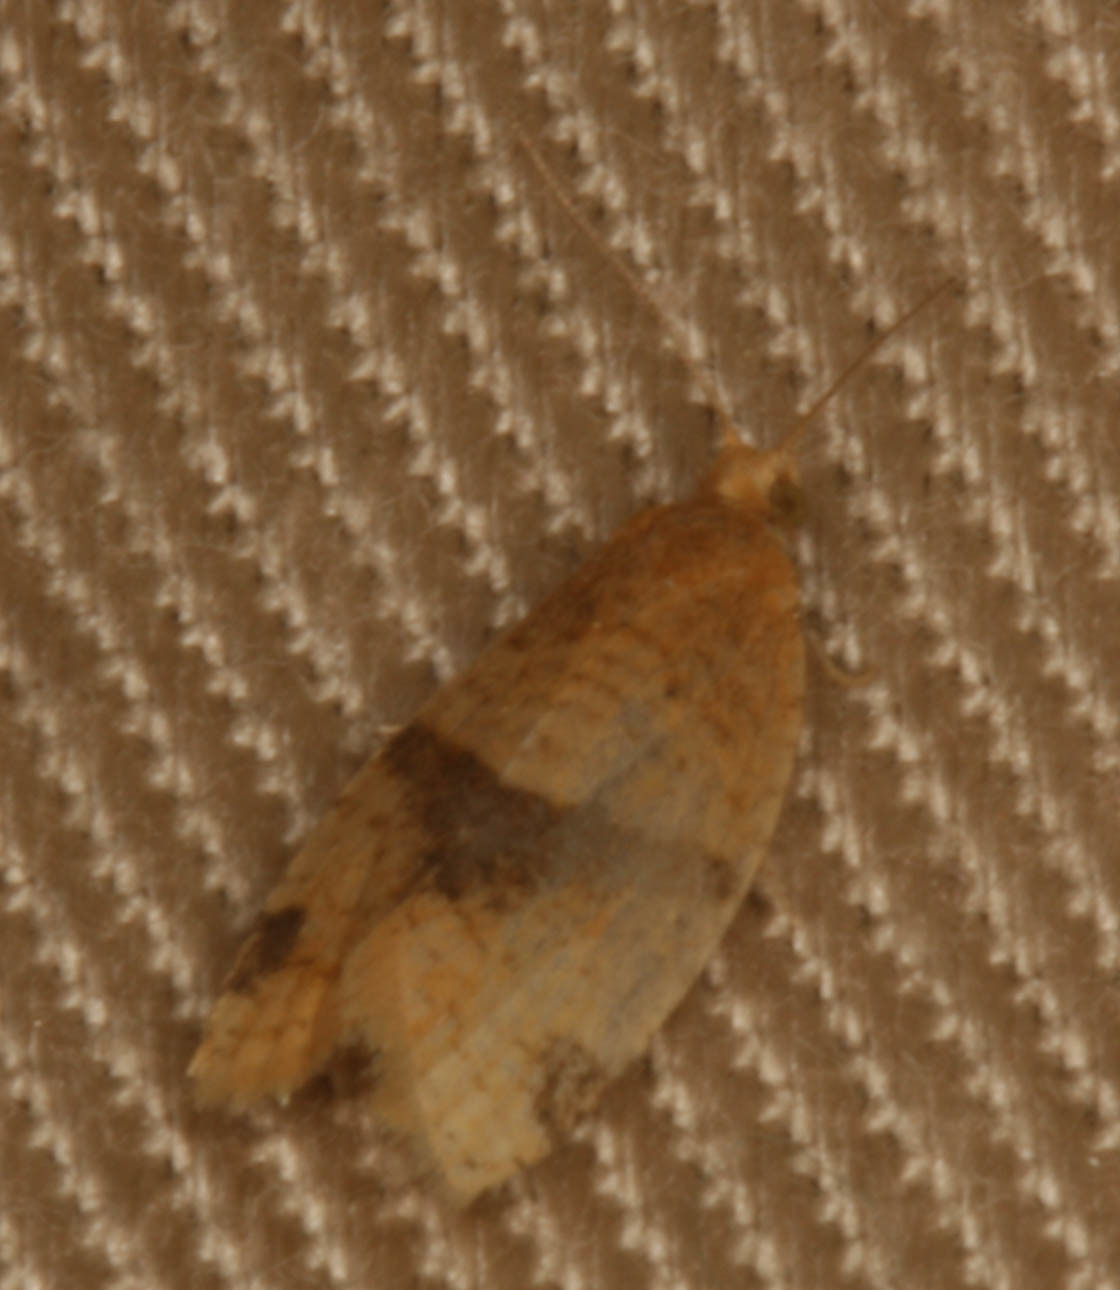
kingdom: Animalia
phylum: Arthropoda
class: Insecta
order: Lepidoptera
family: Tortricidae
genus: Clepsis
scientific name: Clepsis peritana
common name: Garden tortrix
